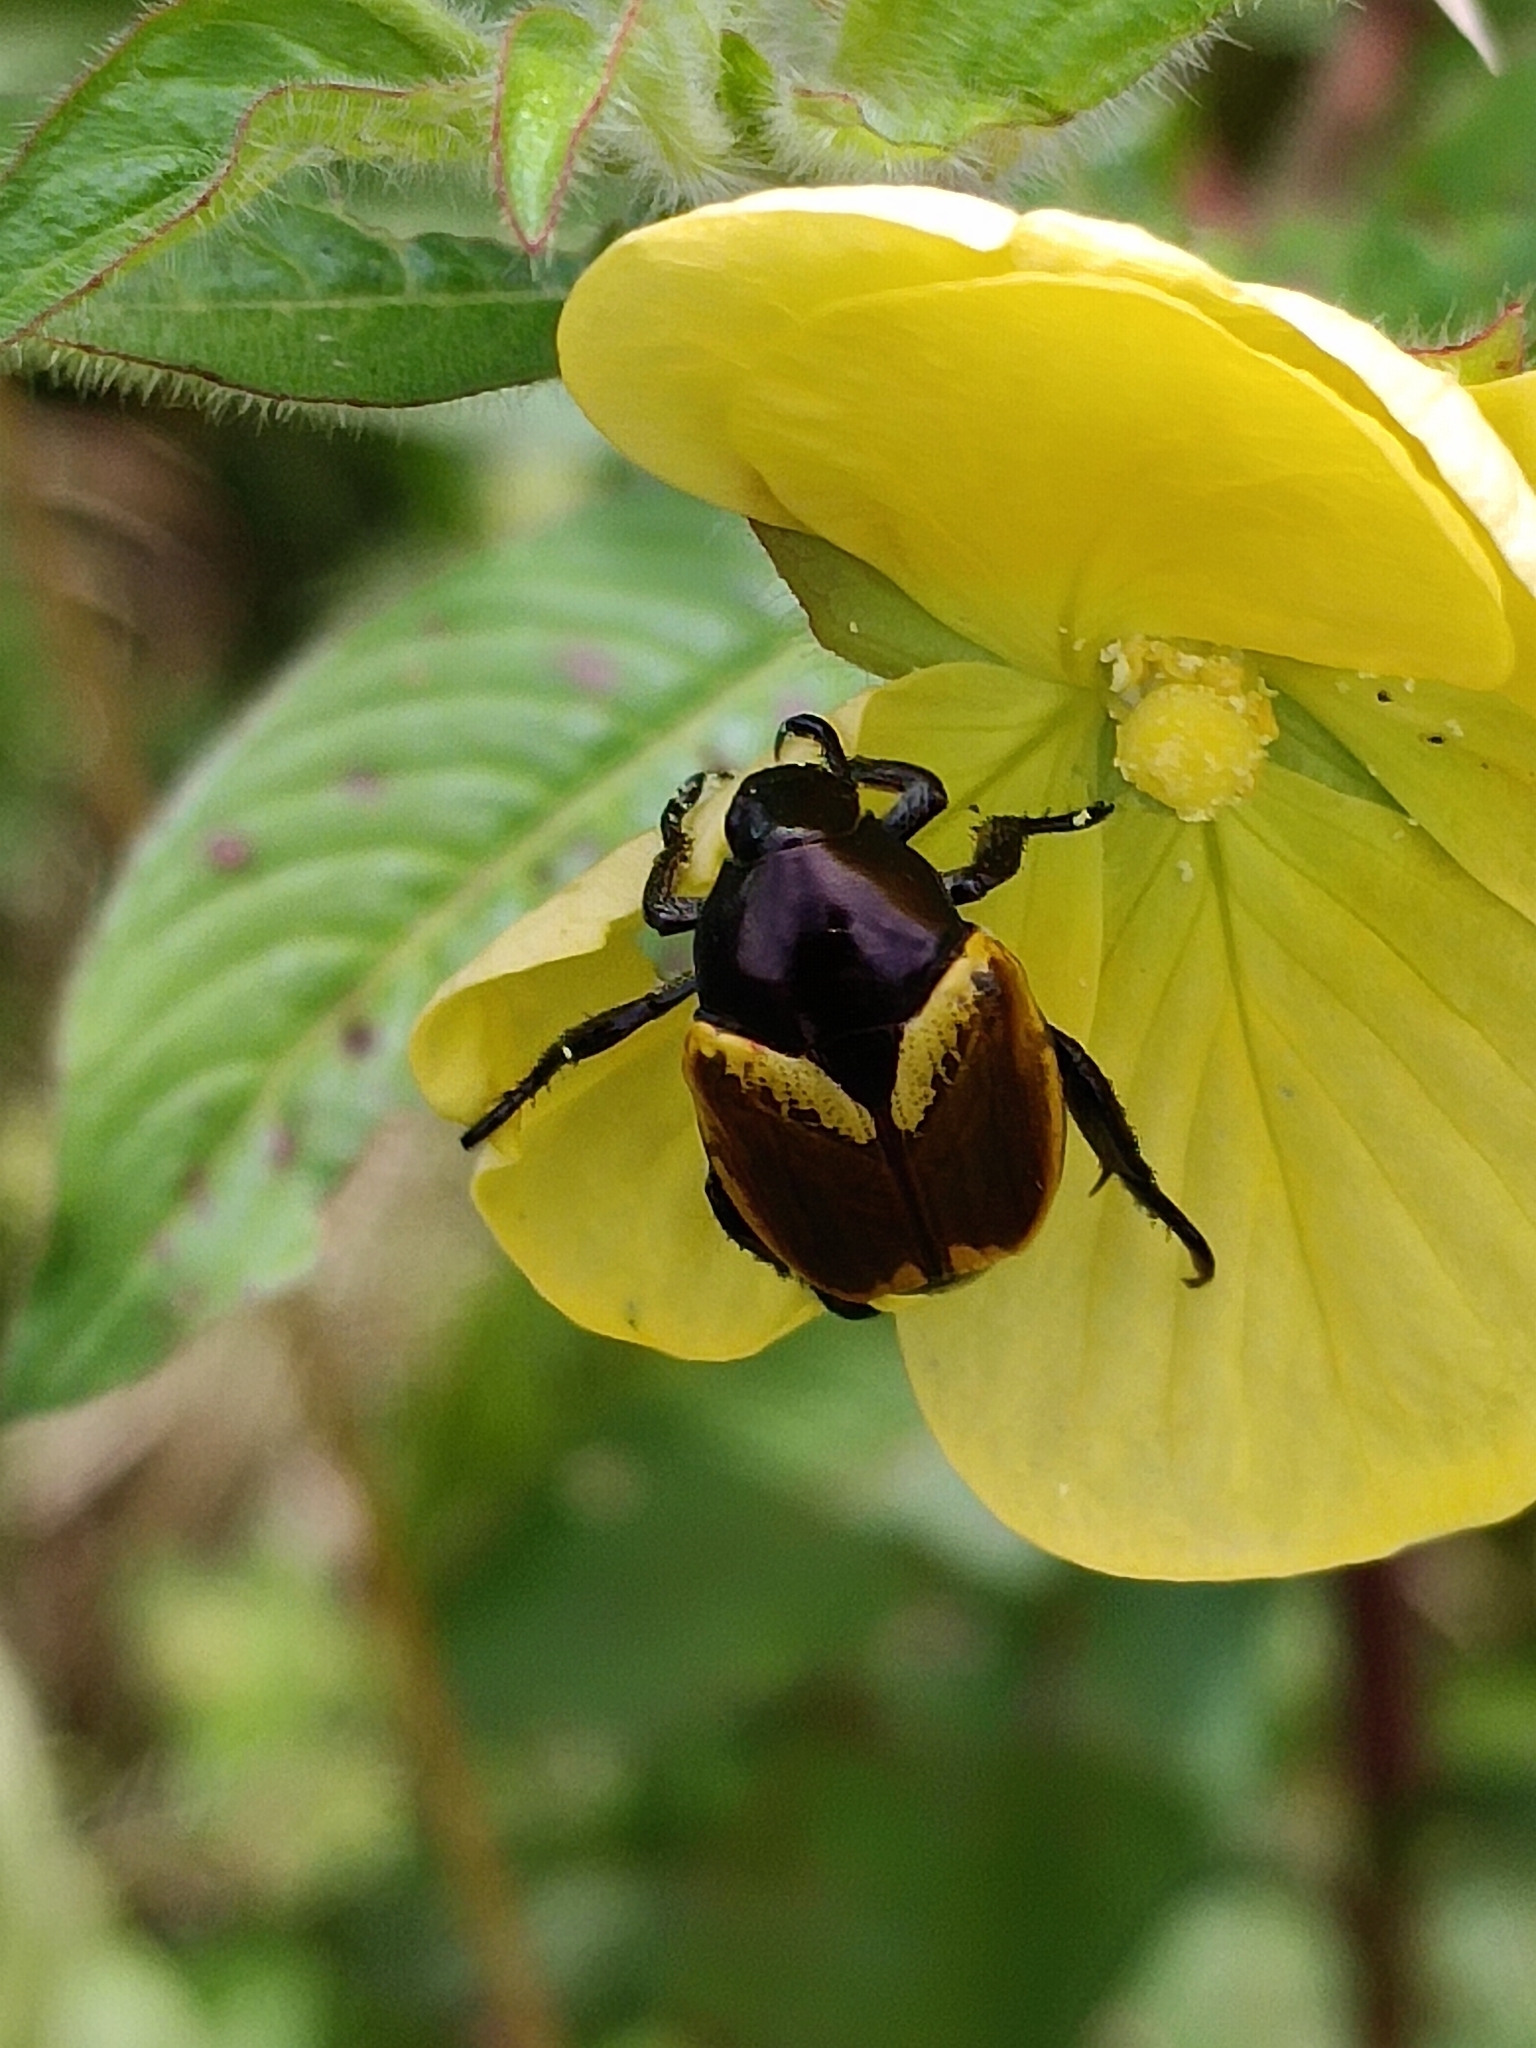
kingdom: Animalia
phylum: Arthropoda
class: Insecta
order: Coleoptera
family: Scarabaeidae
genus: Popillia
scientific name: Popillia bipunctata
